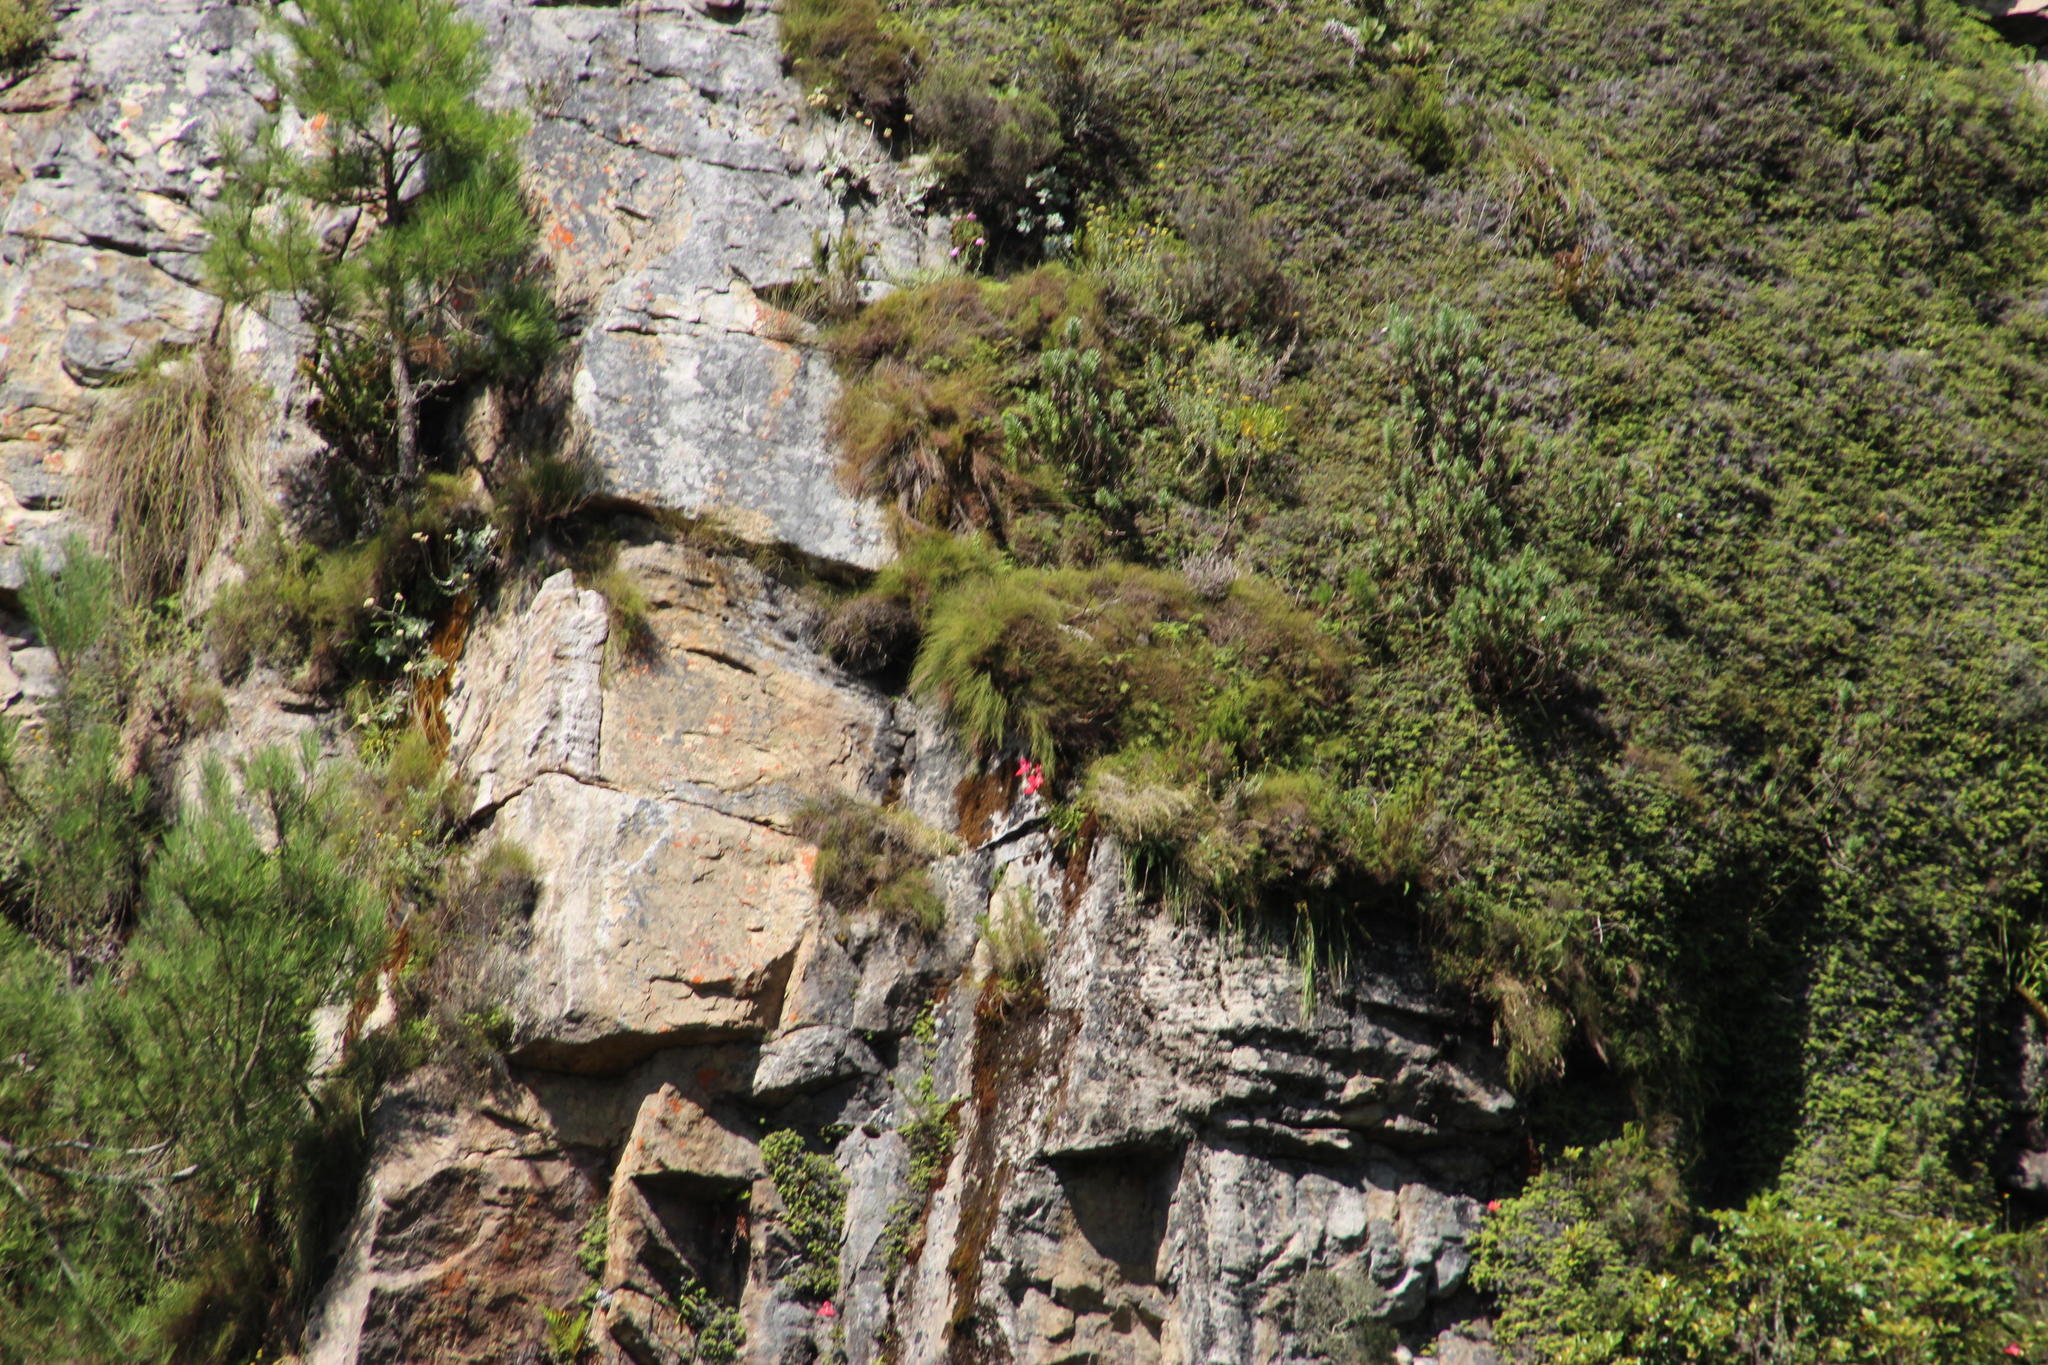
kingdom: Plantae
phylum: Tracheophyta
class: Liliopsida
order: Asparagales
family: Orchidaceae
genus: Disa
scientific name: Disa uniflora
